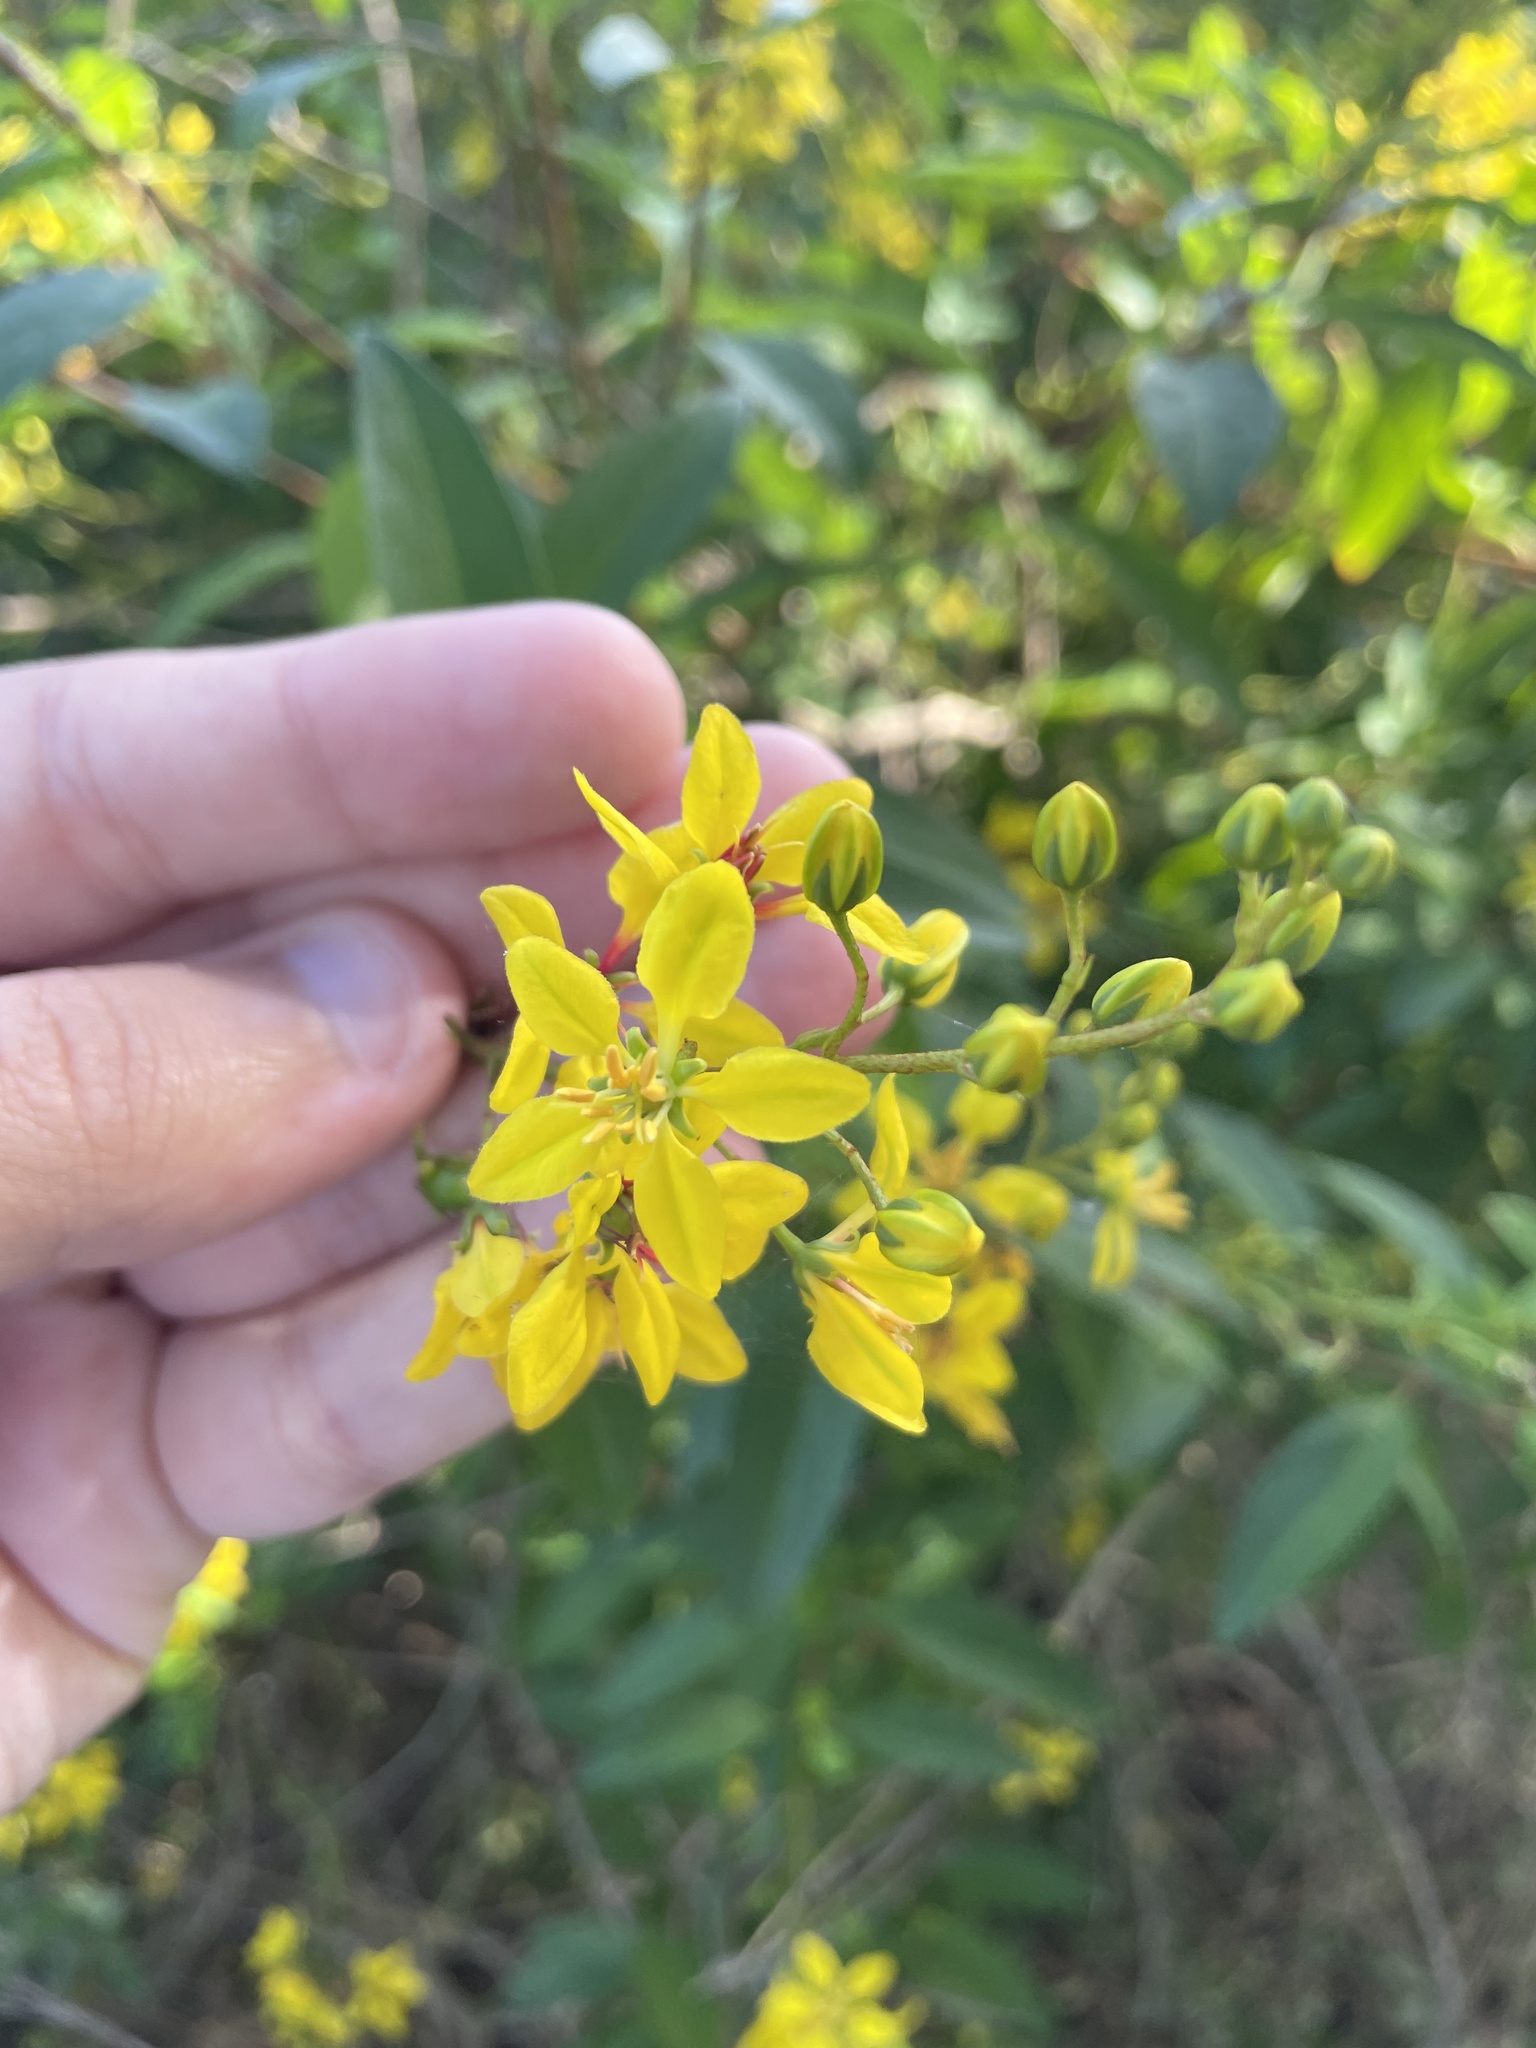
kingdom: Plantae
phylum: Tracheophyta
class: Magnoliopsida
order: Malpighiales
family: Malpighiaceae
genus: Galphimia
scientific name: Galphimia gracilis
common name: Slender goldshower
